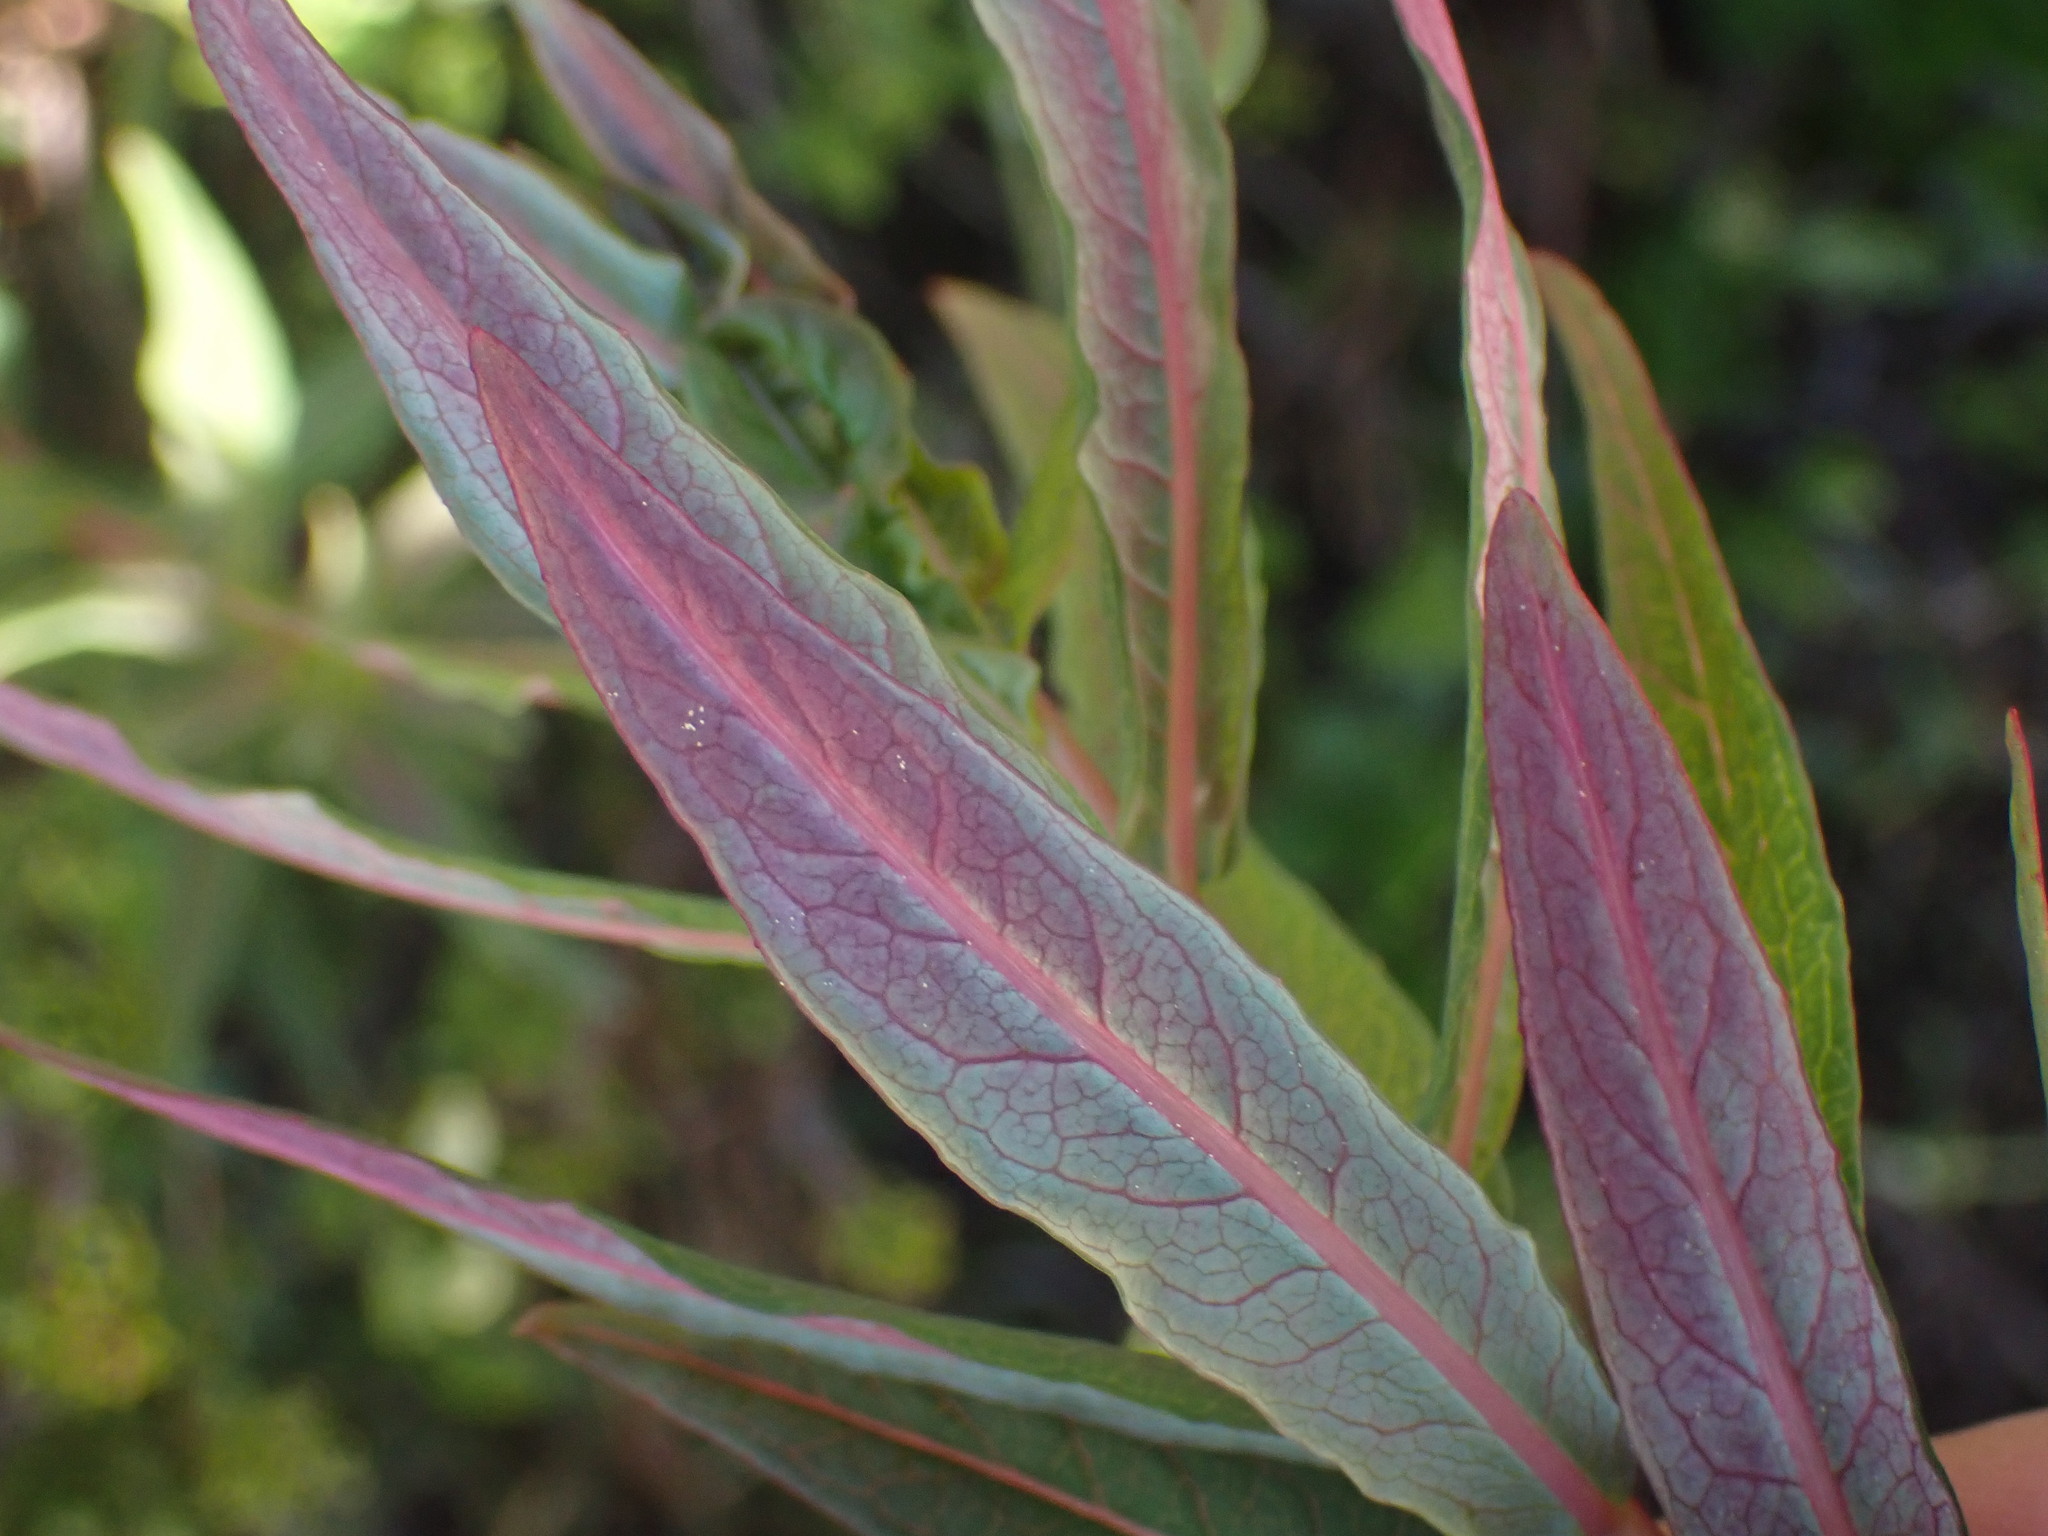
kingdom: Plantae
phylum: Tracheophyta
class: Magnoliopsida
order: Myrtales
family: Onagraceae
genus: Chamaenerion
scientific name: Chamaenerion angustifolium
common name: Fireweed
